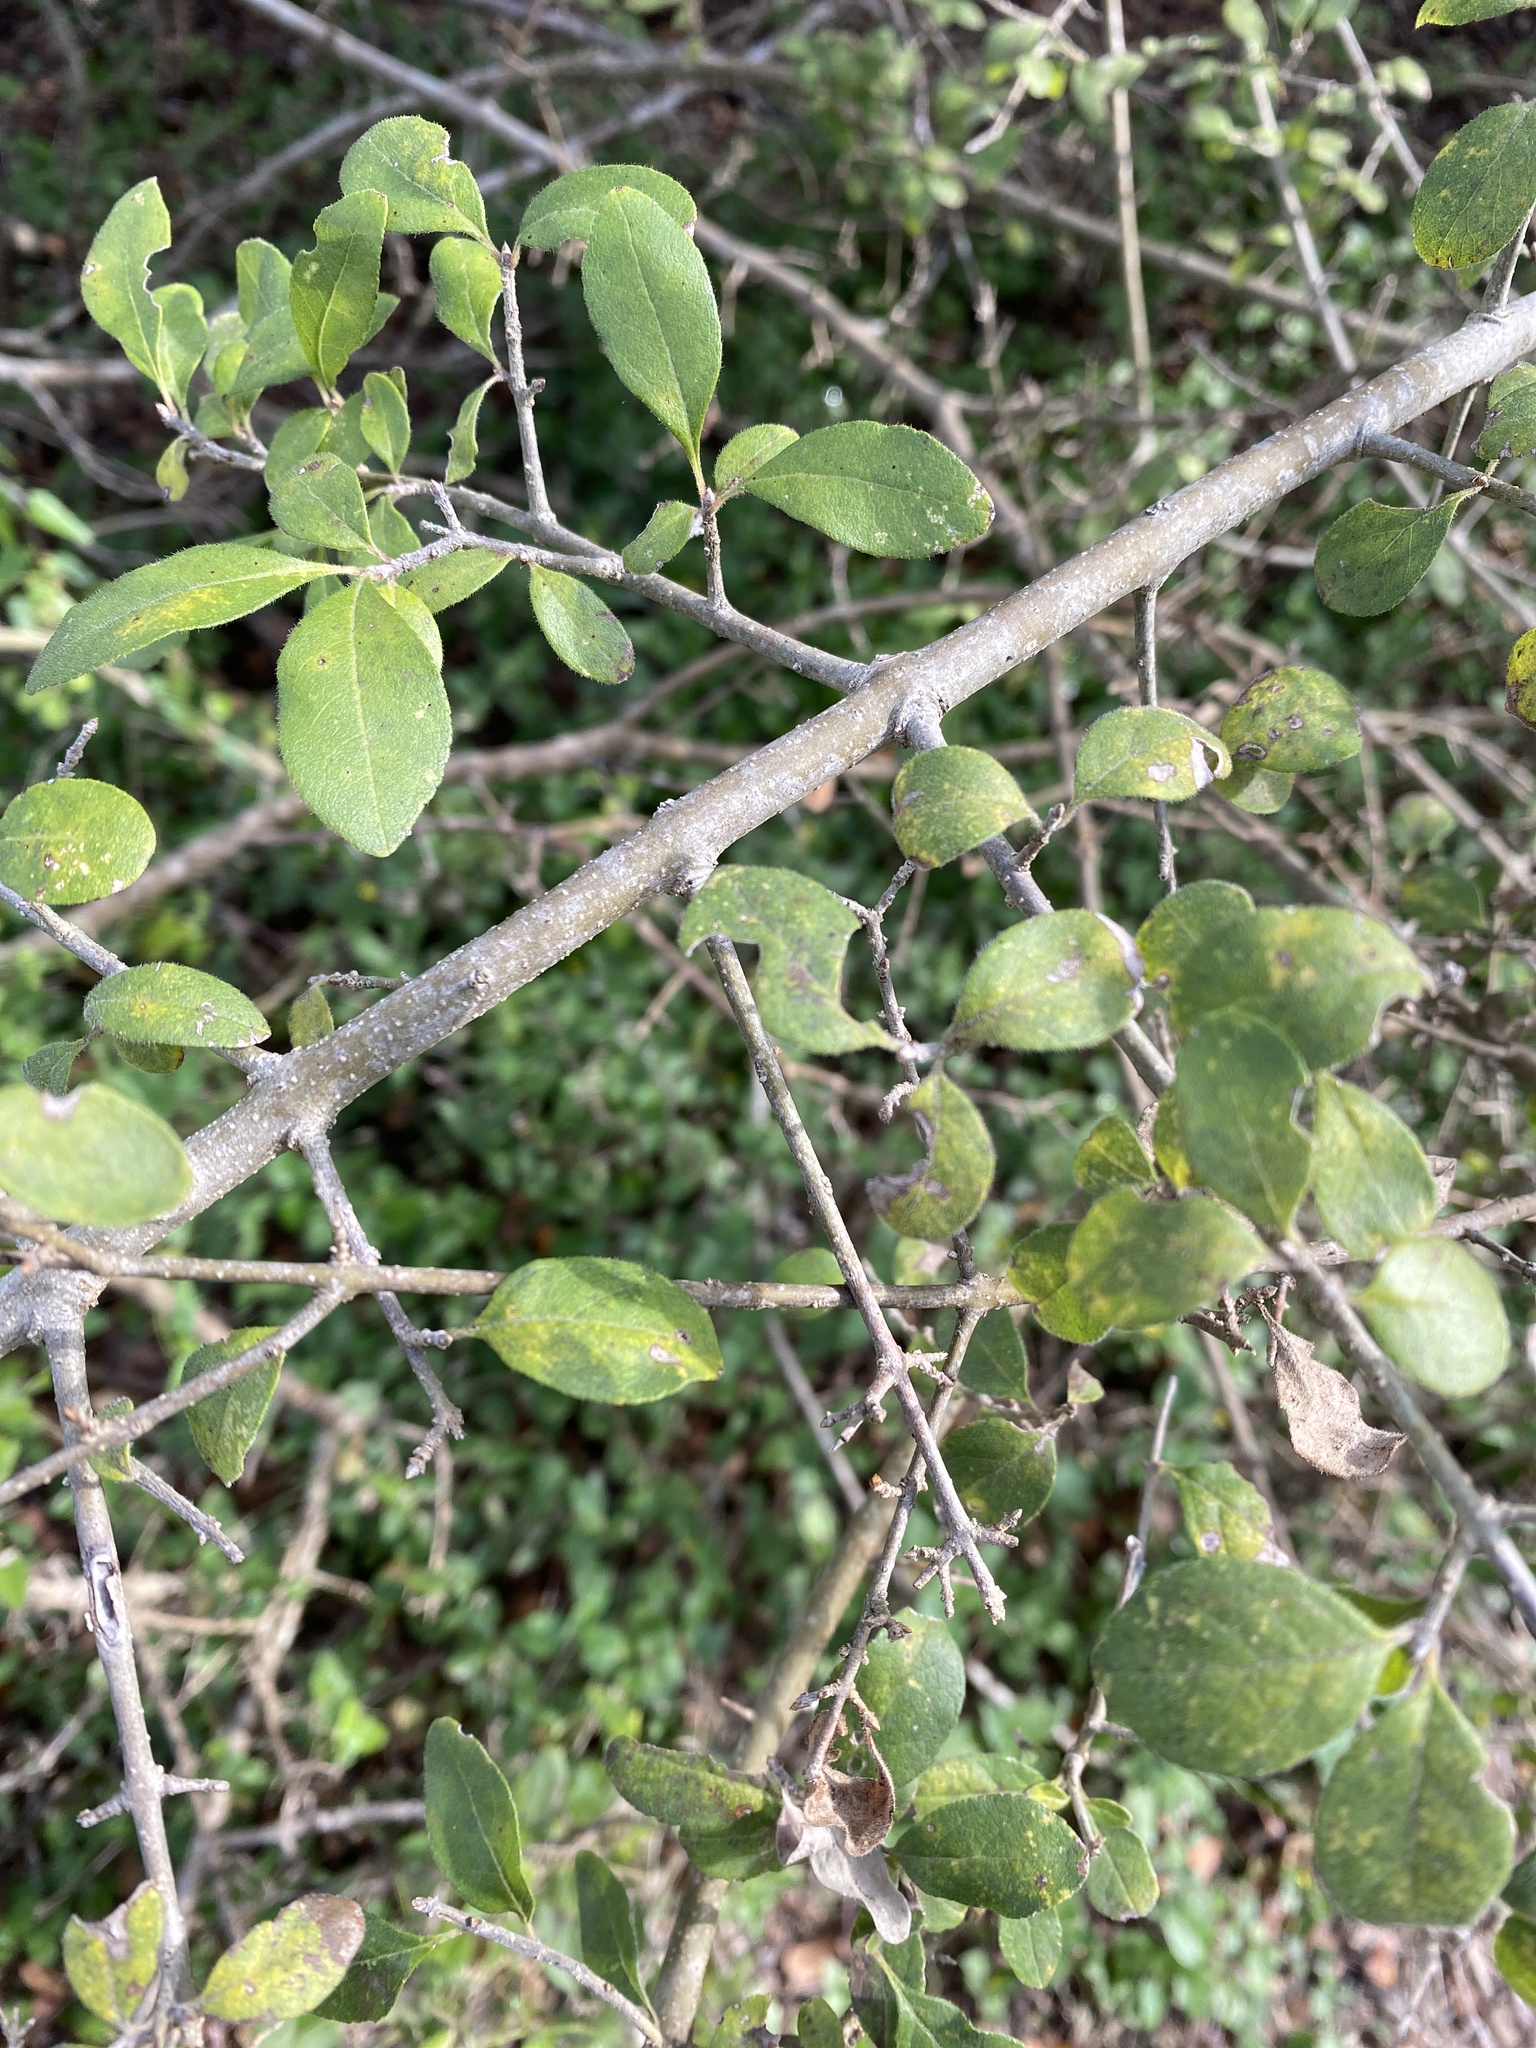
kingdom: Plantae
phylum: Tracheophyta
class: Magnoliopsida
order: Lamiales
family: Oleaceae
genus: Forestiera
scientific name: Forestiera pubescens
